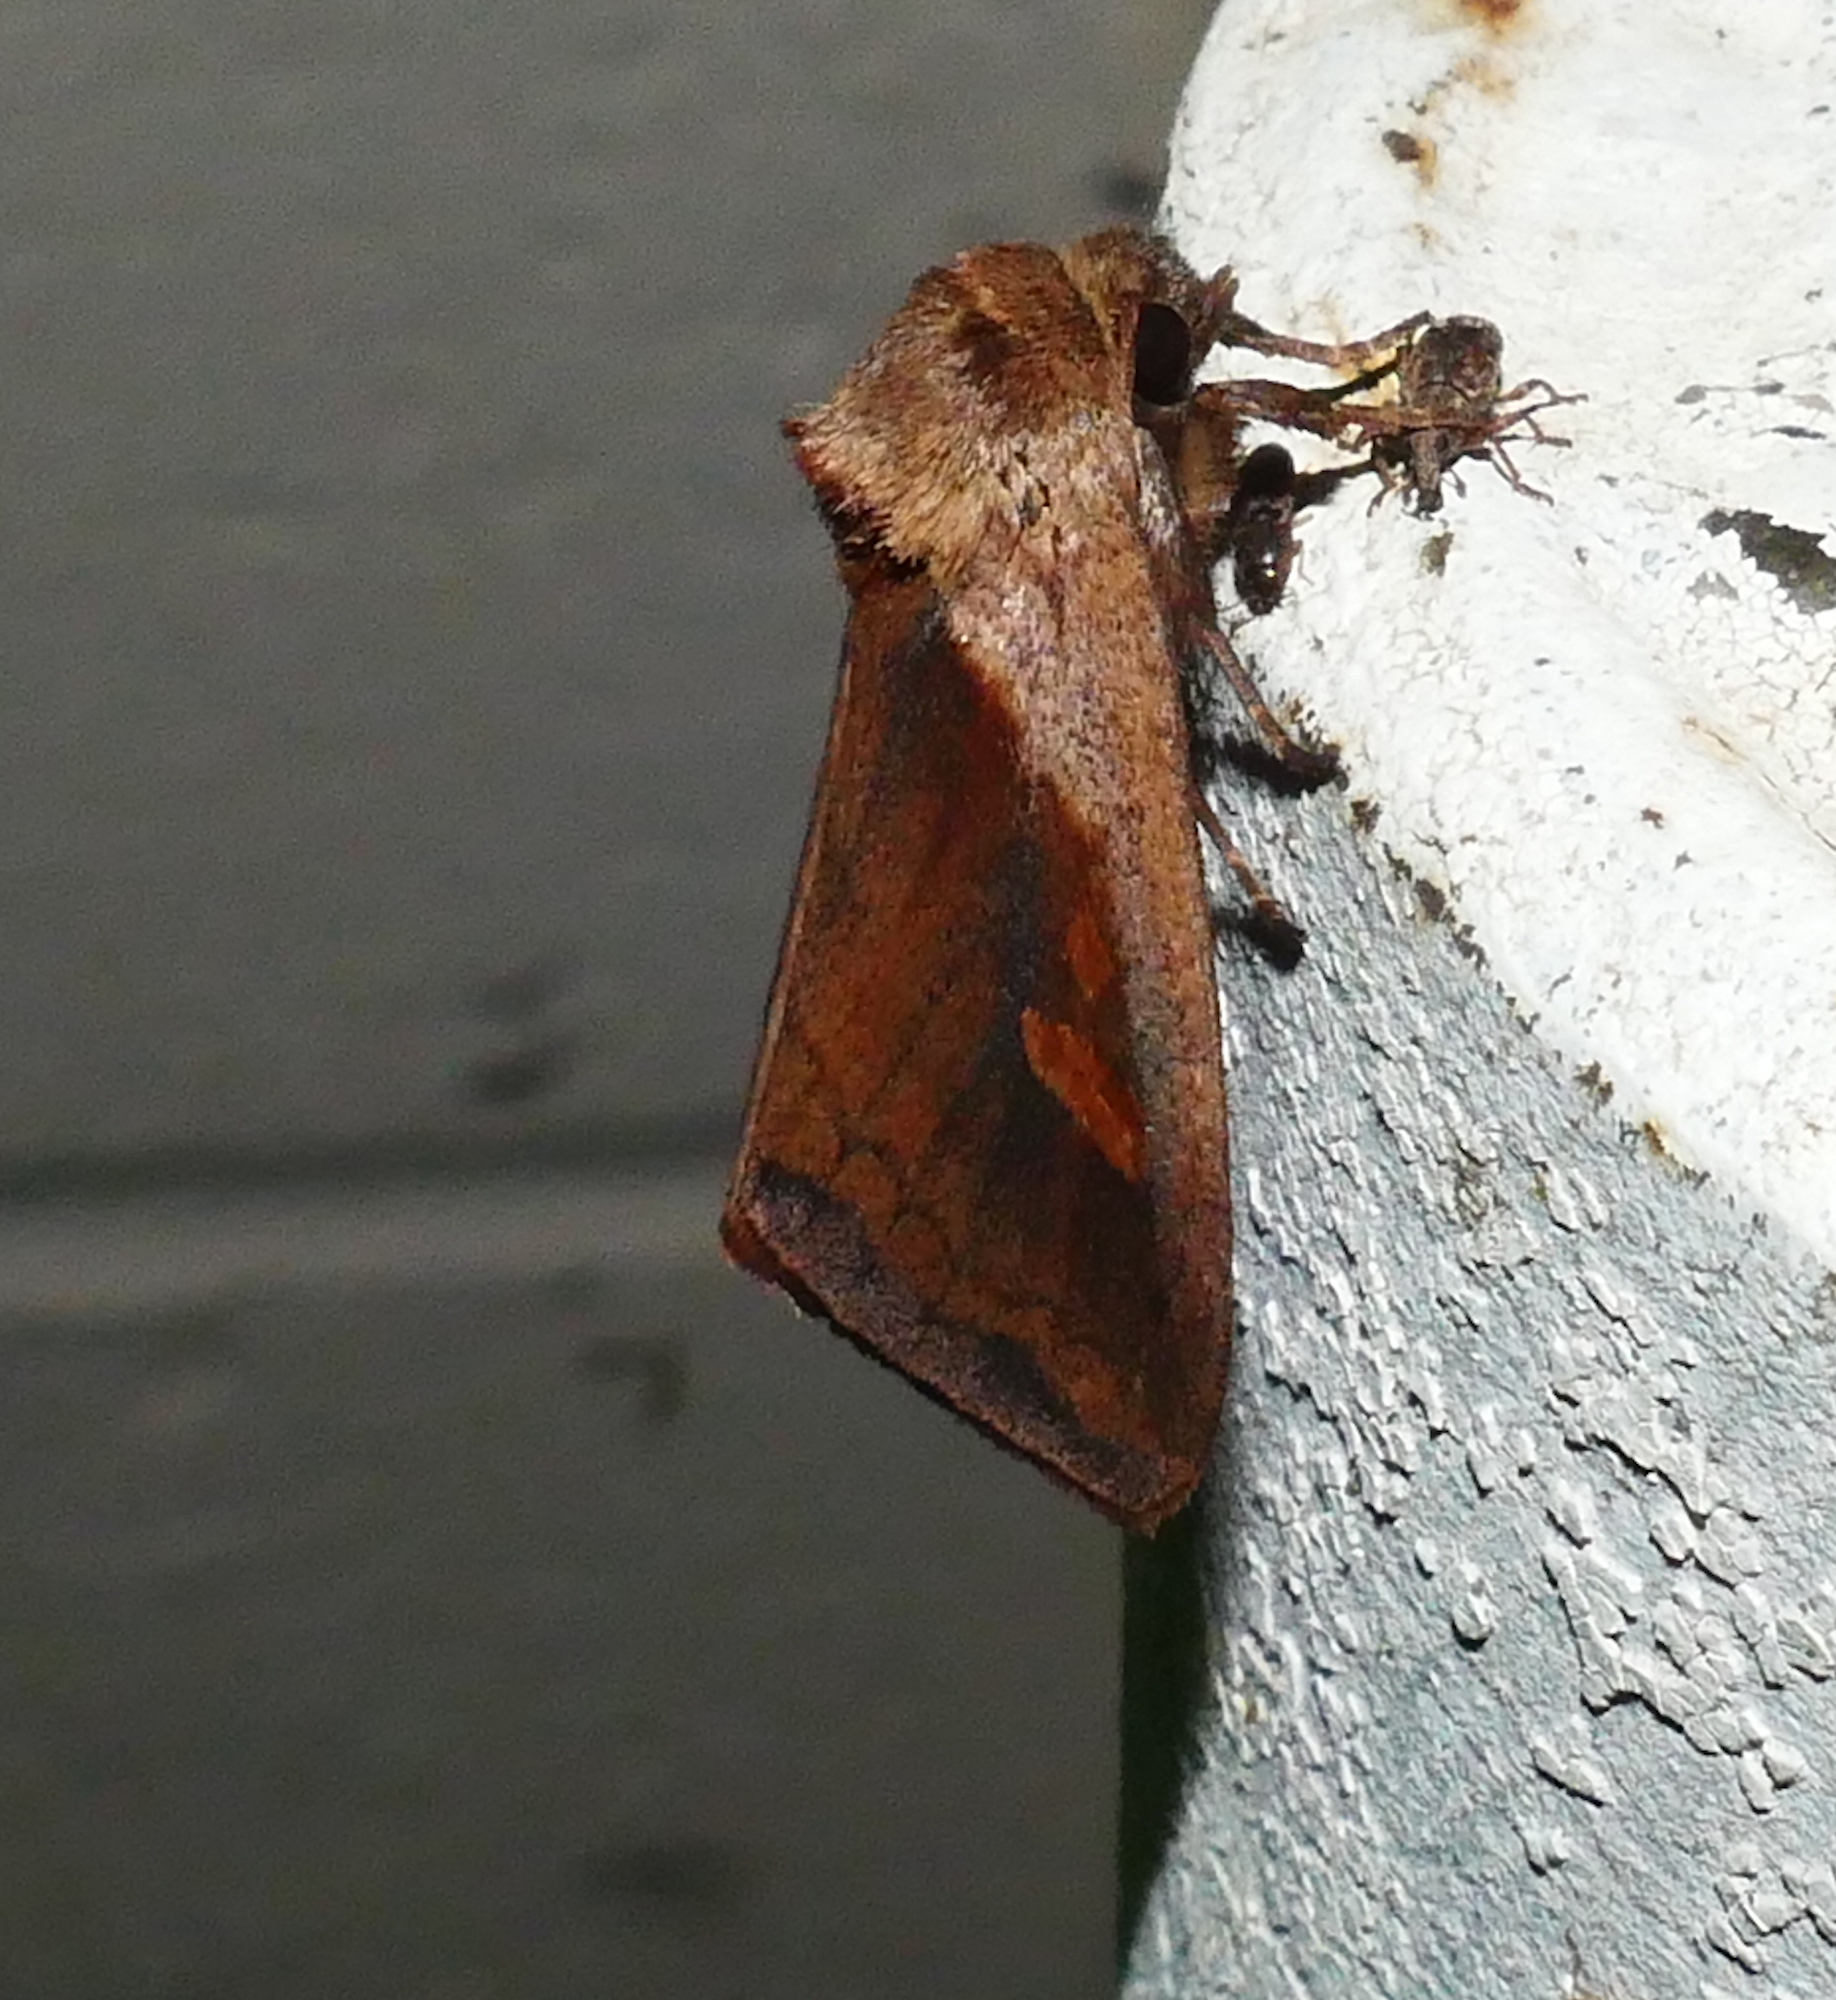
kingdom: Animalia
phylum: Arthropoda
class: Insecta
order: Lepidoptera
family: Noctuidae
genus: Bellura
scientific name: Bellura obliqua
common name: Cattail borer moth
